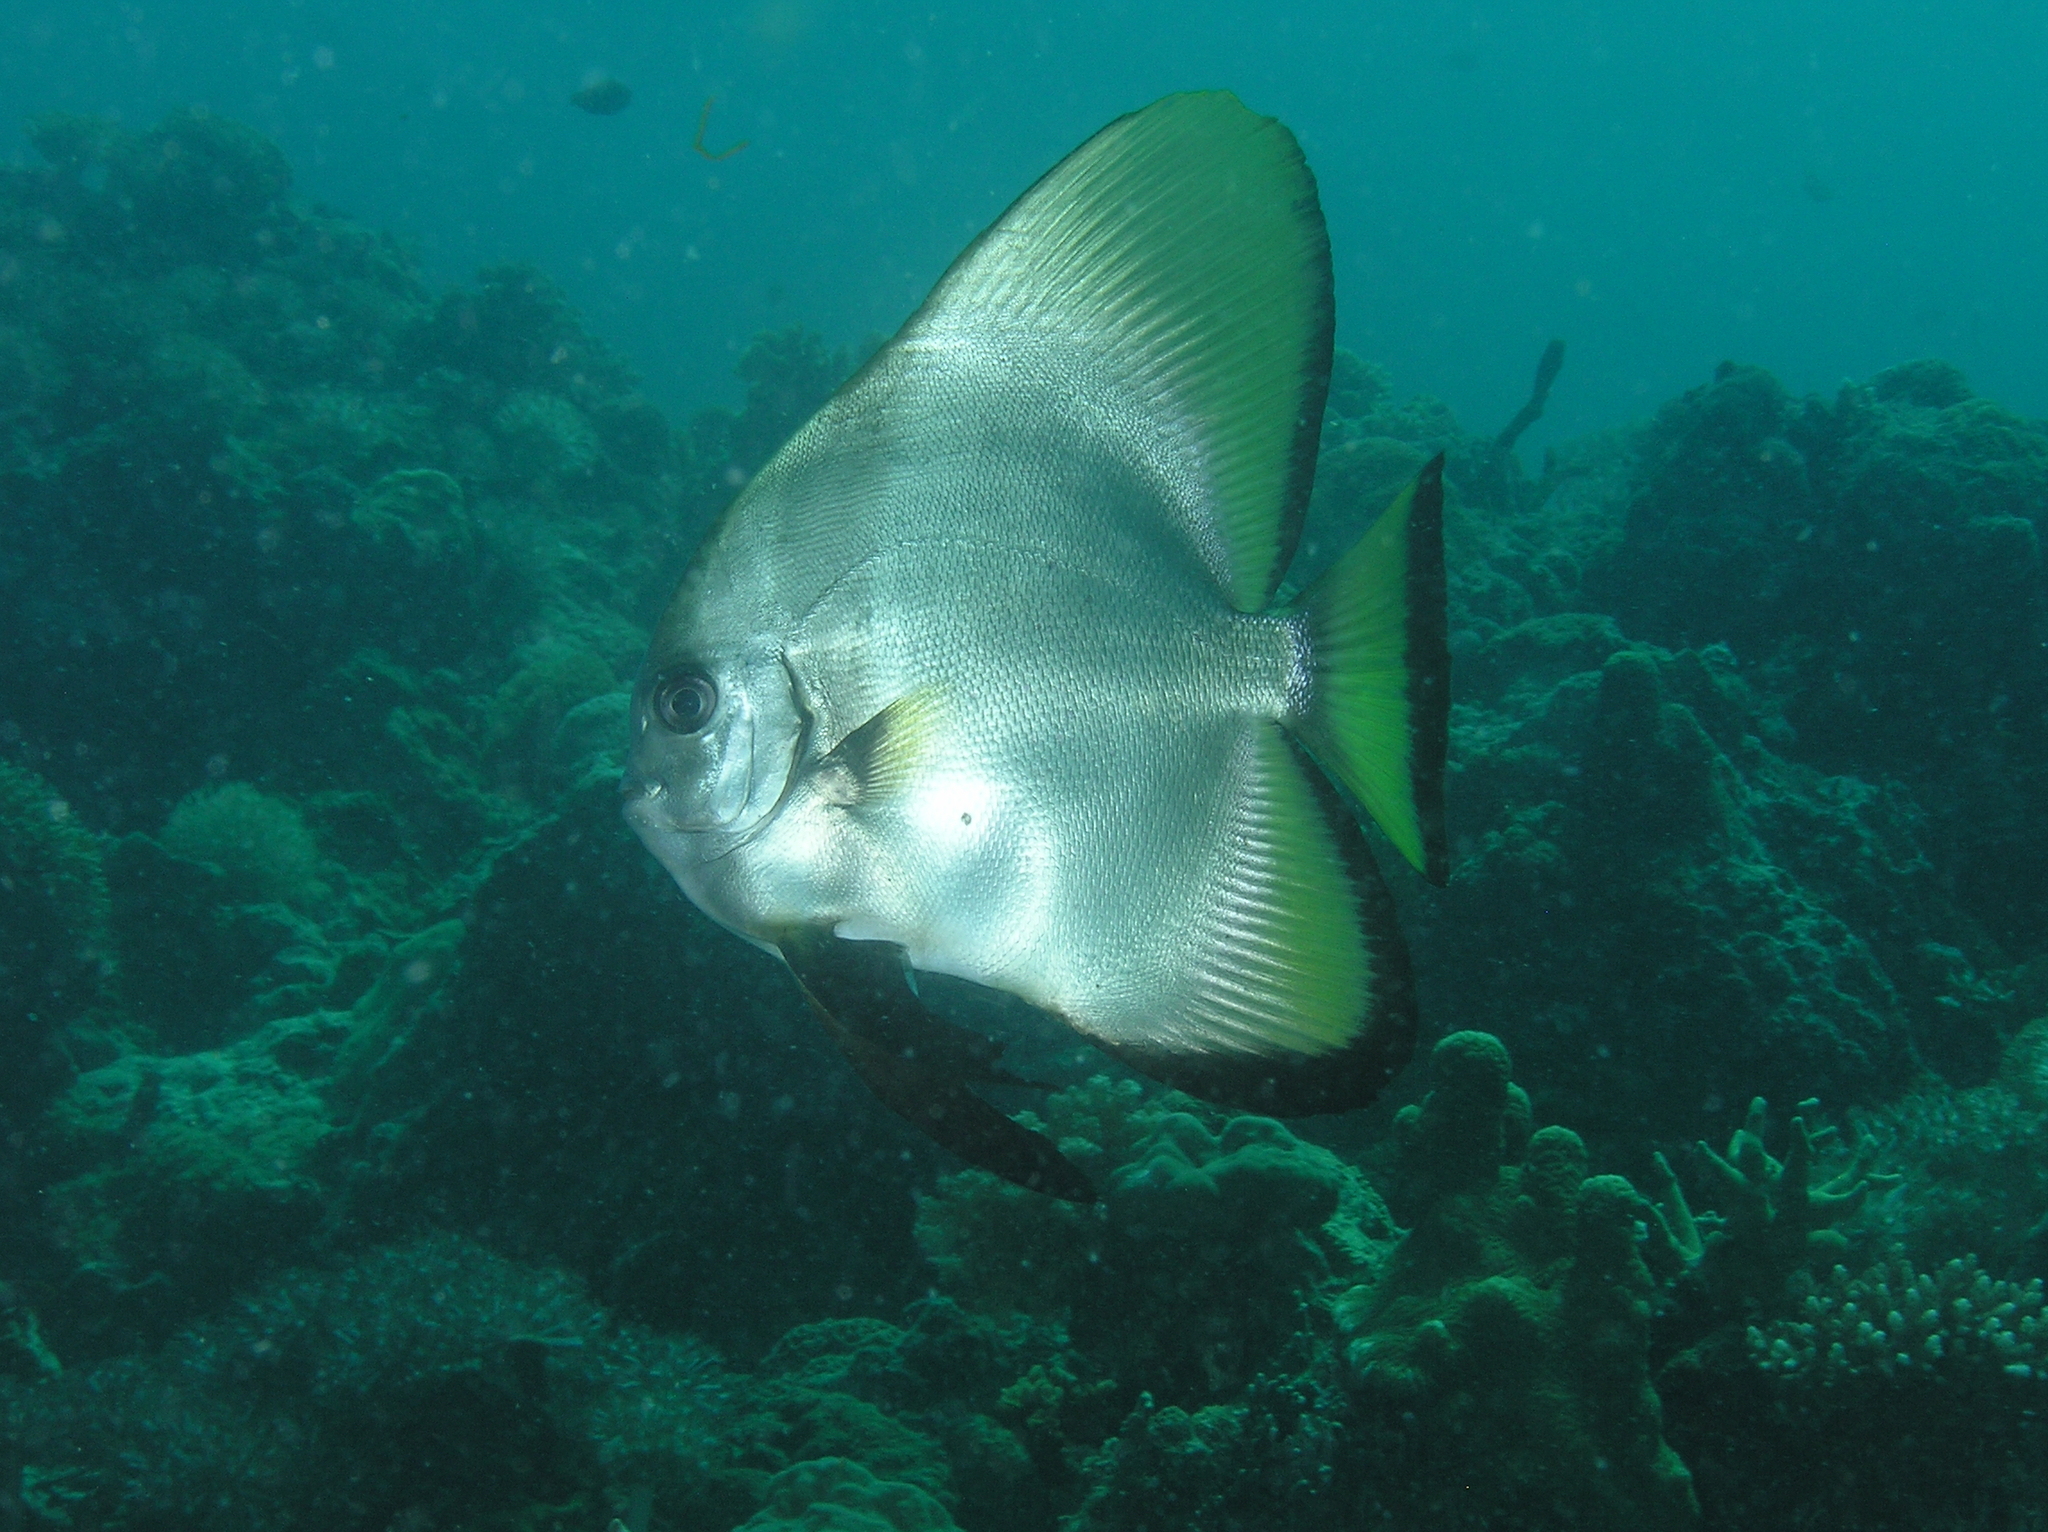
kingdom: Animalia
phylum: Chordata
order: Perciformes
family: Ephippidae
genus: Platax
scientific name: Platax boersii
